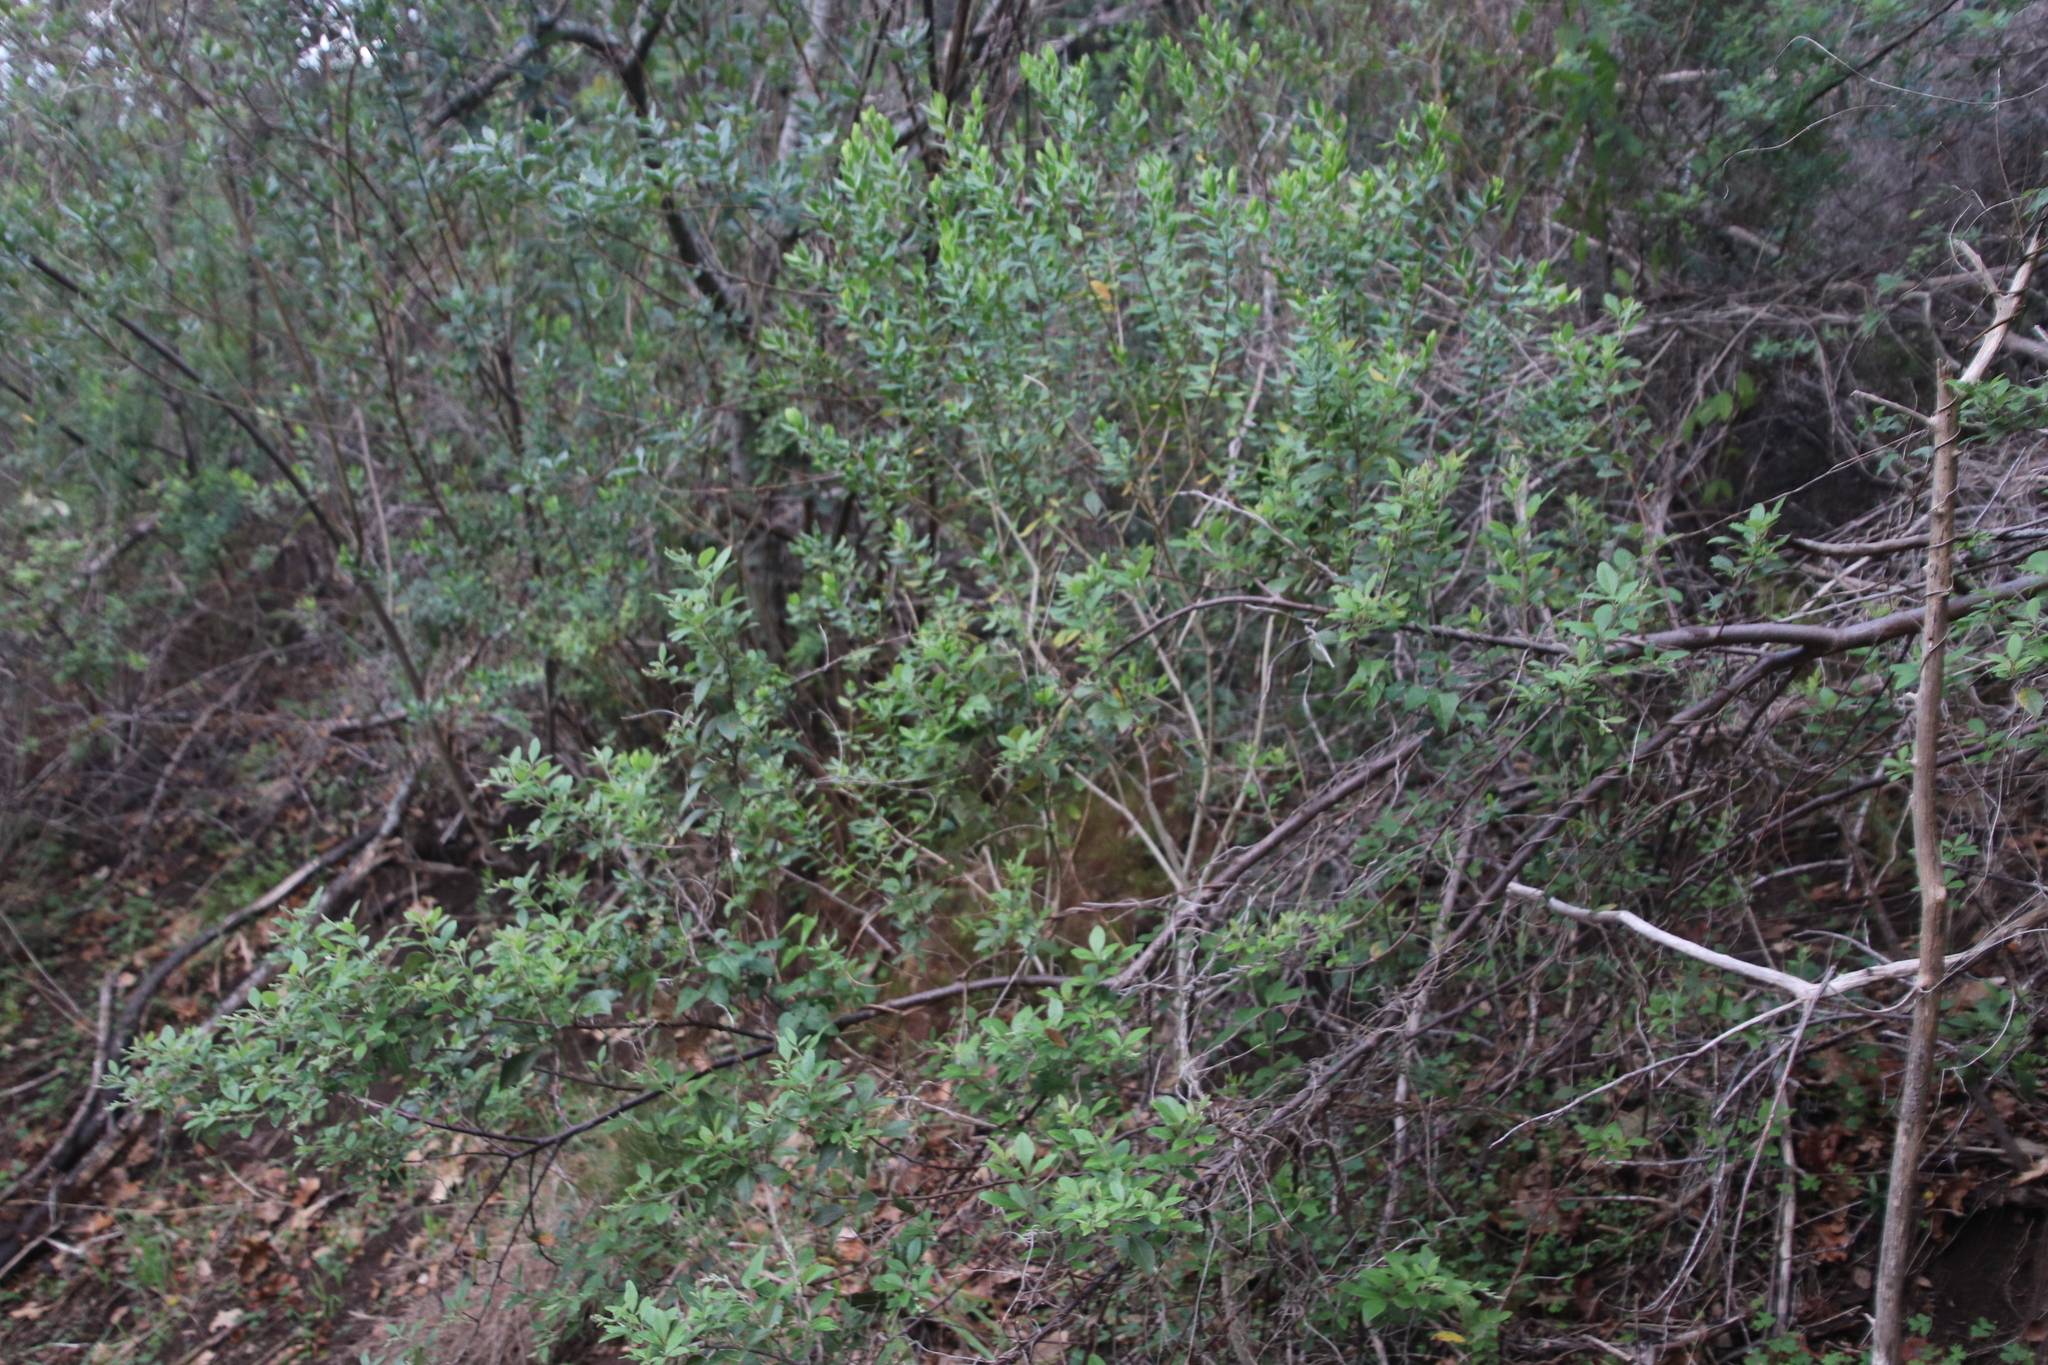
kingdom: Plantae
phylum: Tracheophyta
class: Magnoliopsida
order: Fabales
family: Polygalaceae
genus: Polygala
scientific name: Polygala myrtifolia
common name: Myrtle-leaf milkwort
